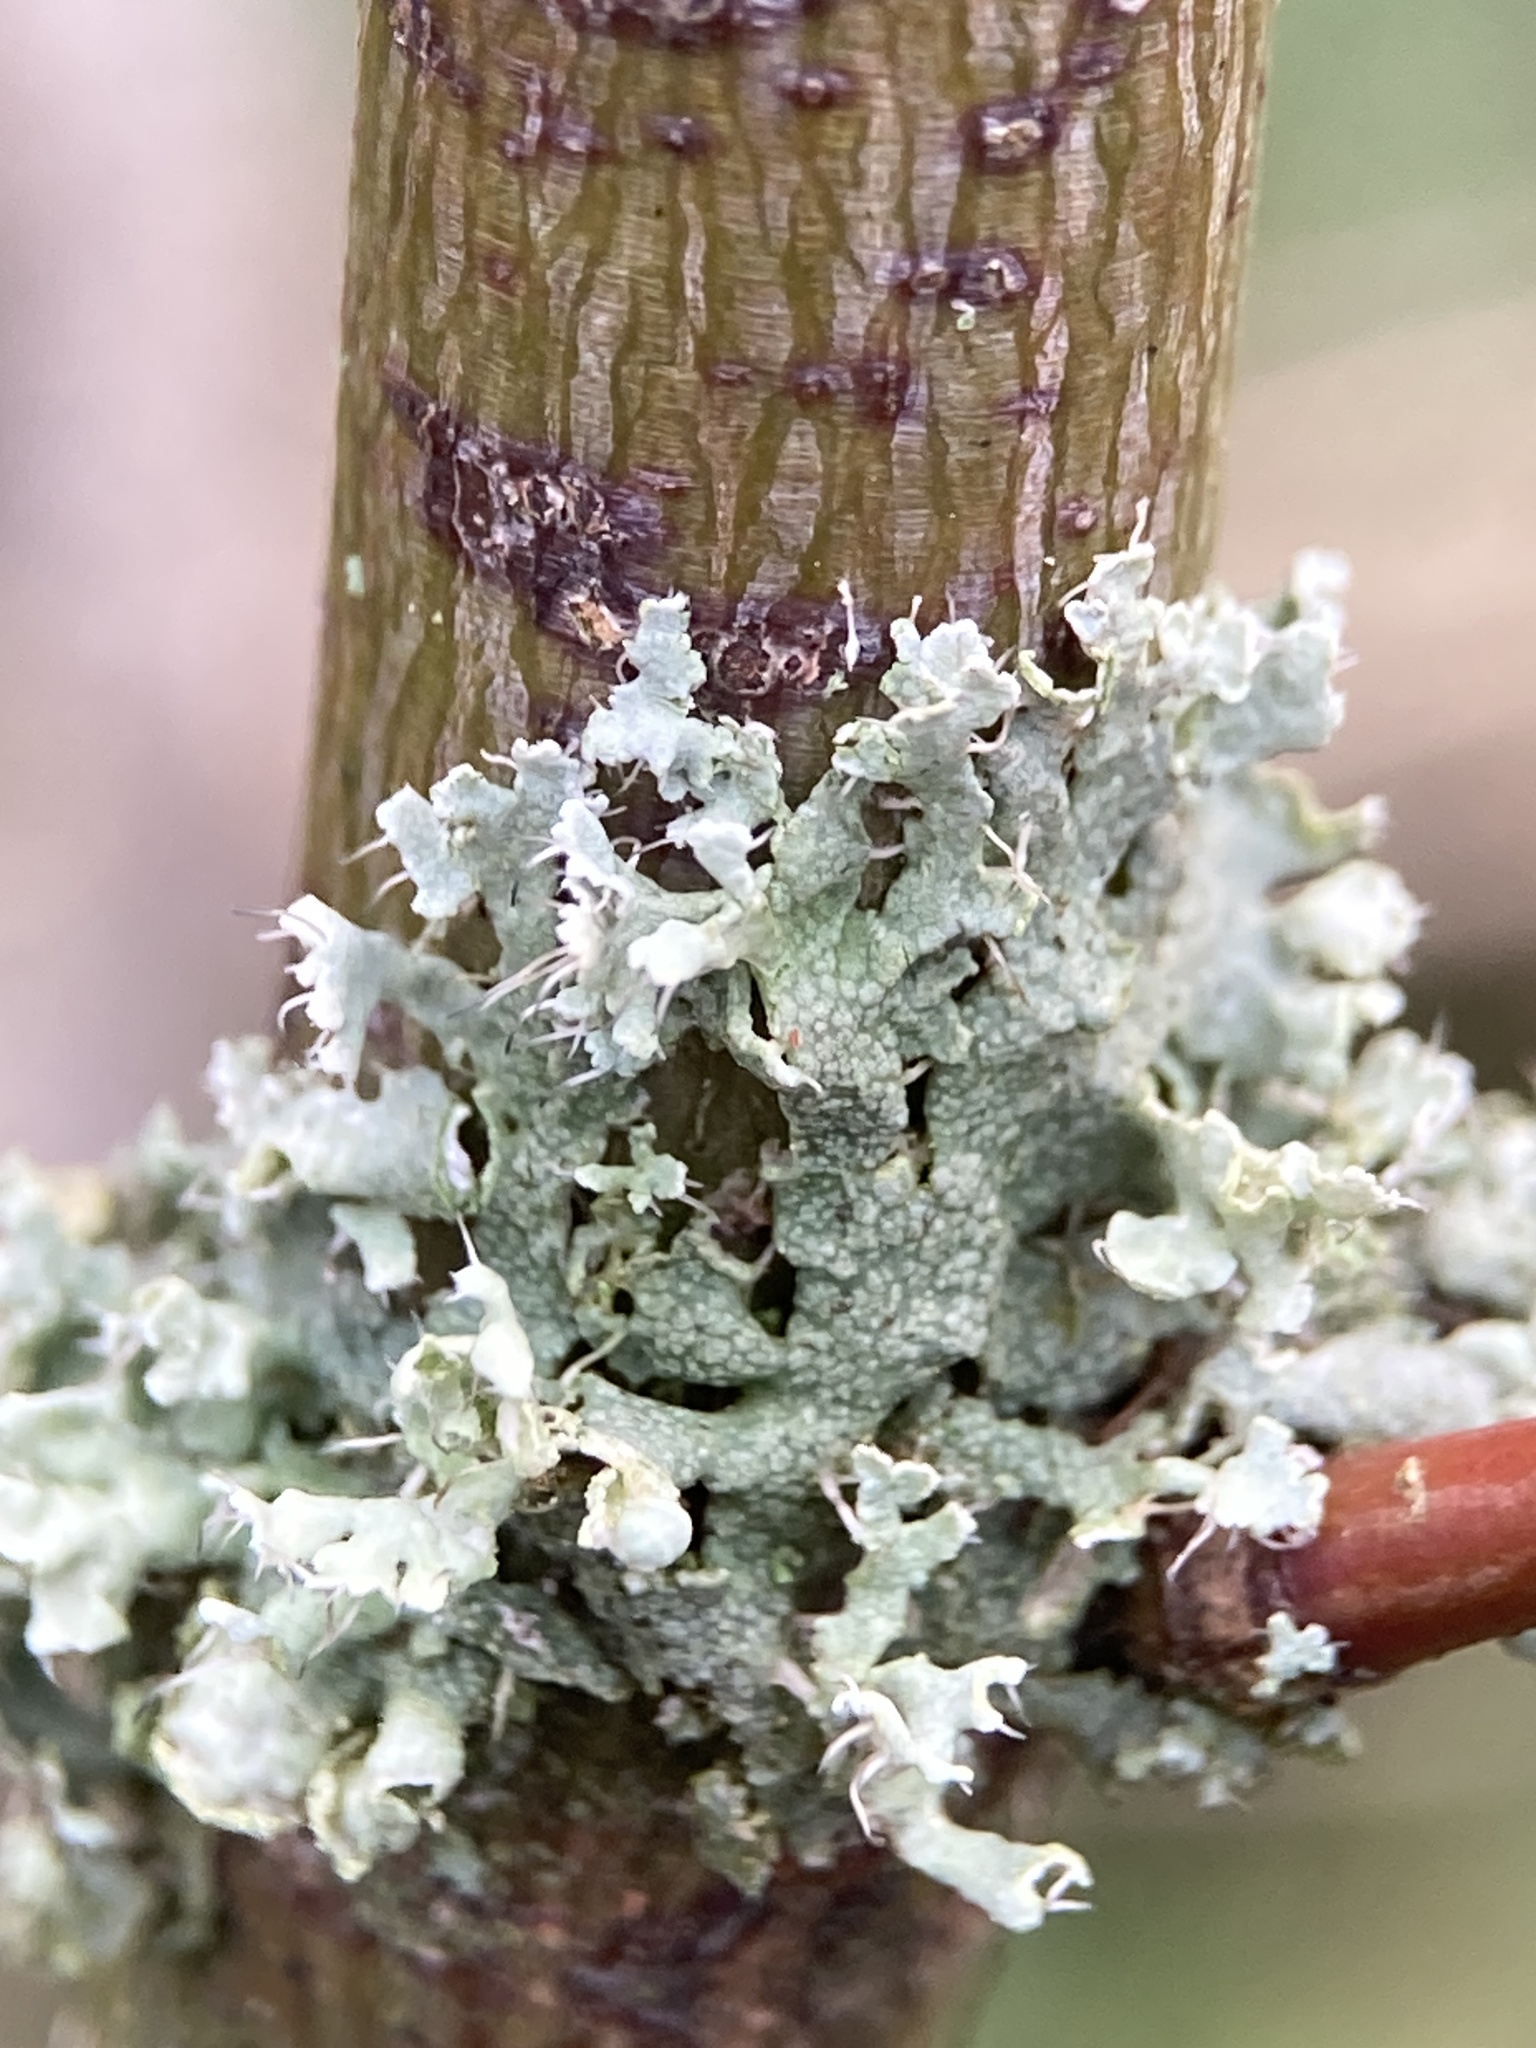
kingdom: Fungi
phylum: Ascomycota
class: Lecanoromycetes
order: Caliciales
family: Physciaceae
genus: Physcia
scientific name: Physcia adscendens
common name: Hooded rosette lichen
